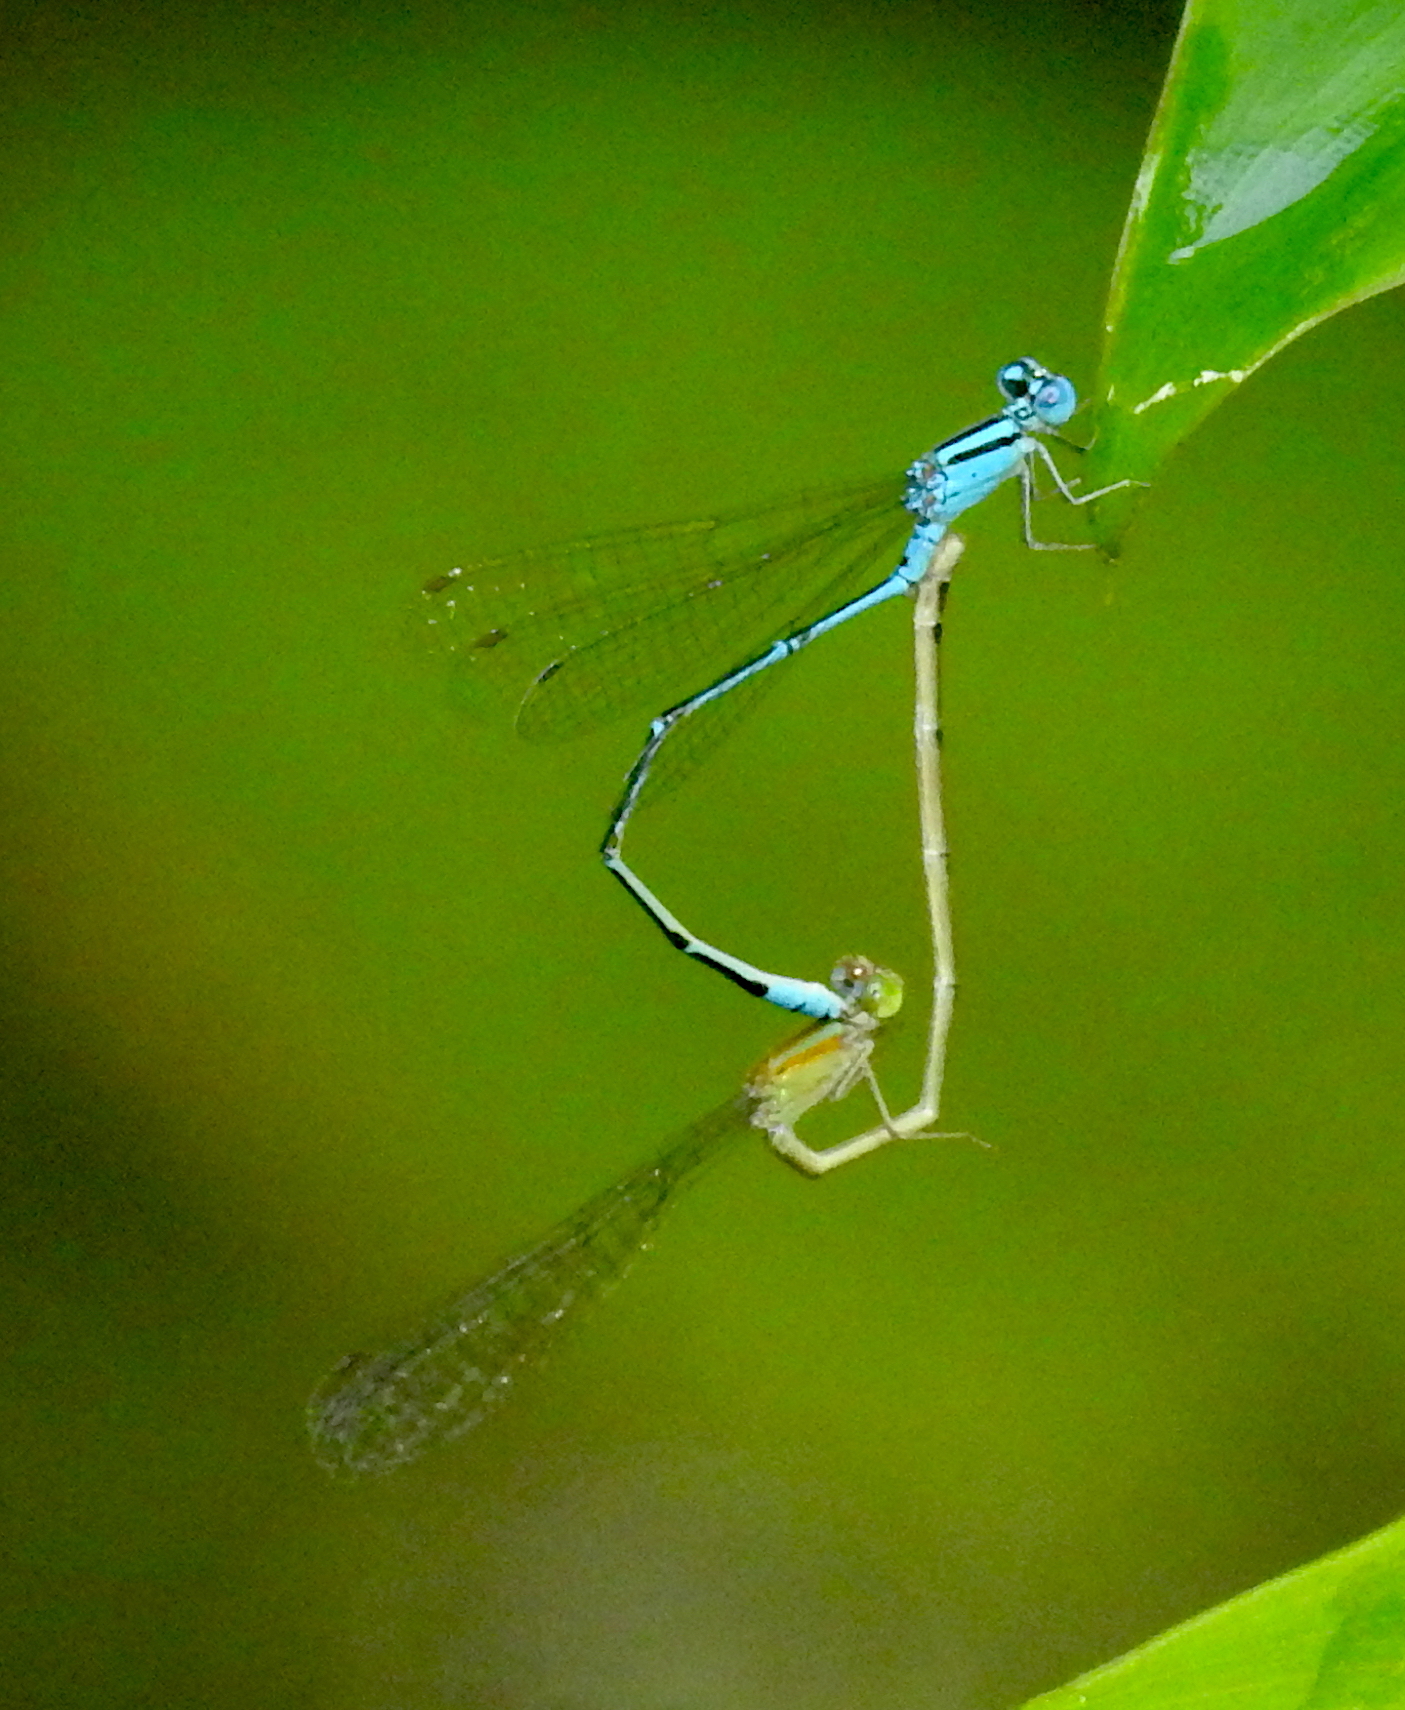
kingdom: Animalia
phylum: Arthropoda
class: Insecta
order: Odonata
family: Coenagrionidae
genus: Pseudagrion
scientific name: Pseudagrion microcephalum
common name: Blue riverdamsel
